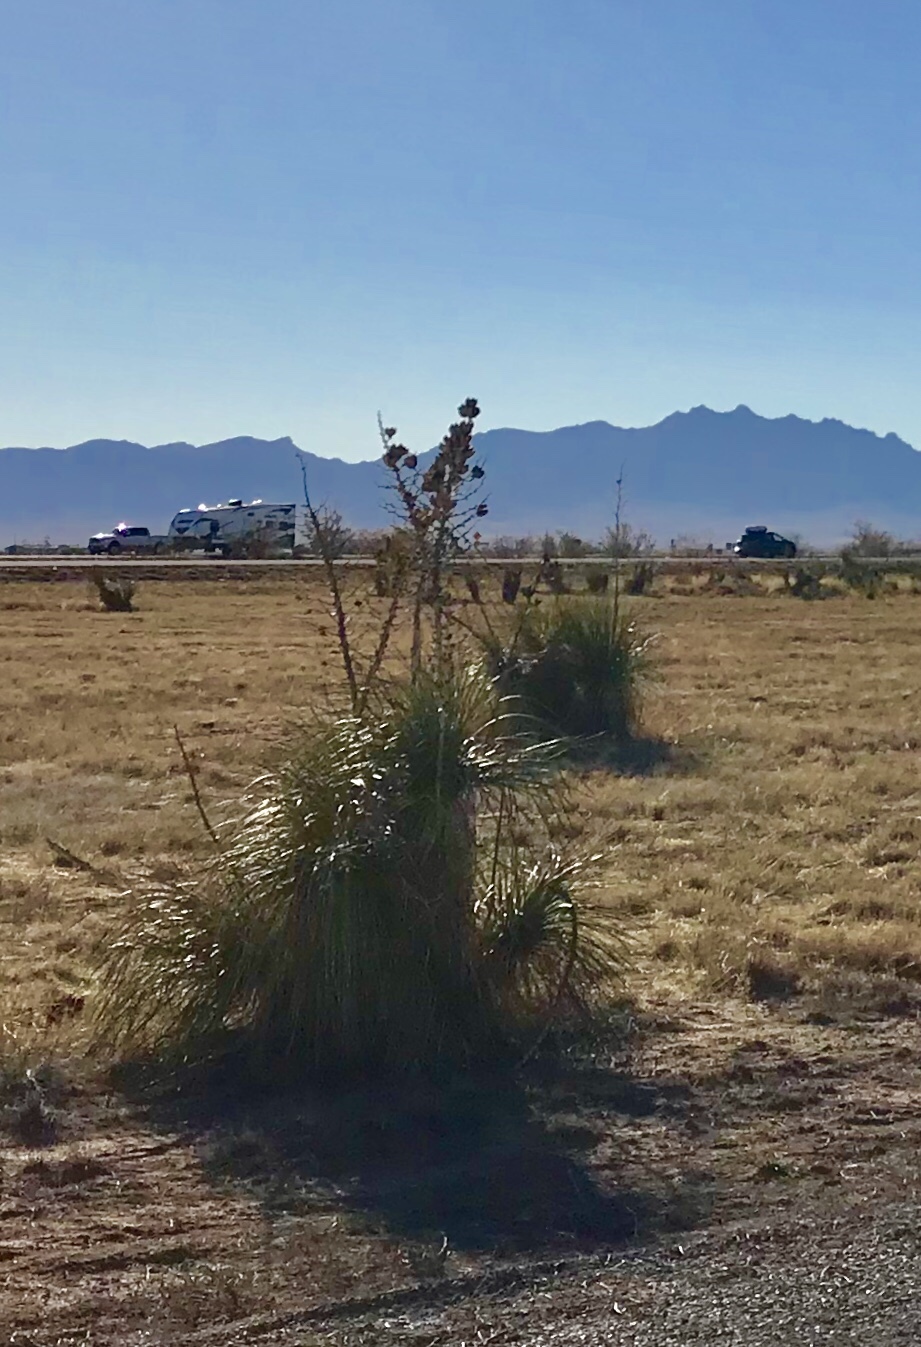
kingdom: Plantae
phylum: Tracheophyta
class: Liliopsida
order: Asparagales
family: Asparagaceae
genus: Yucca
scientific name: Yucca elata
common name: Palmella
